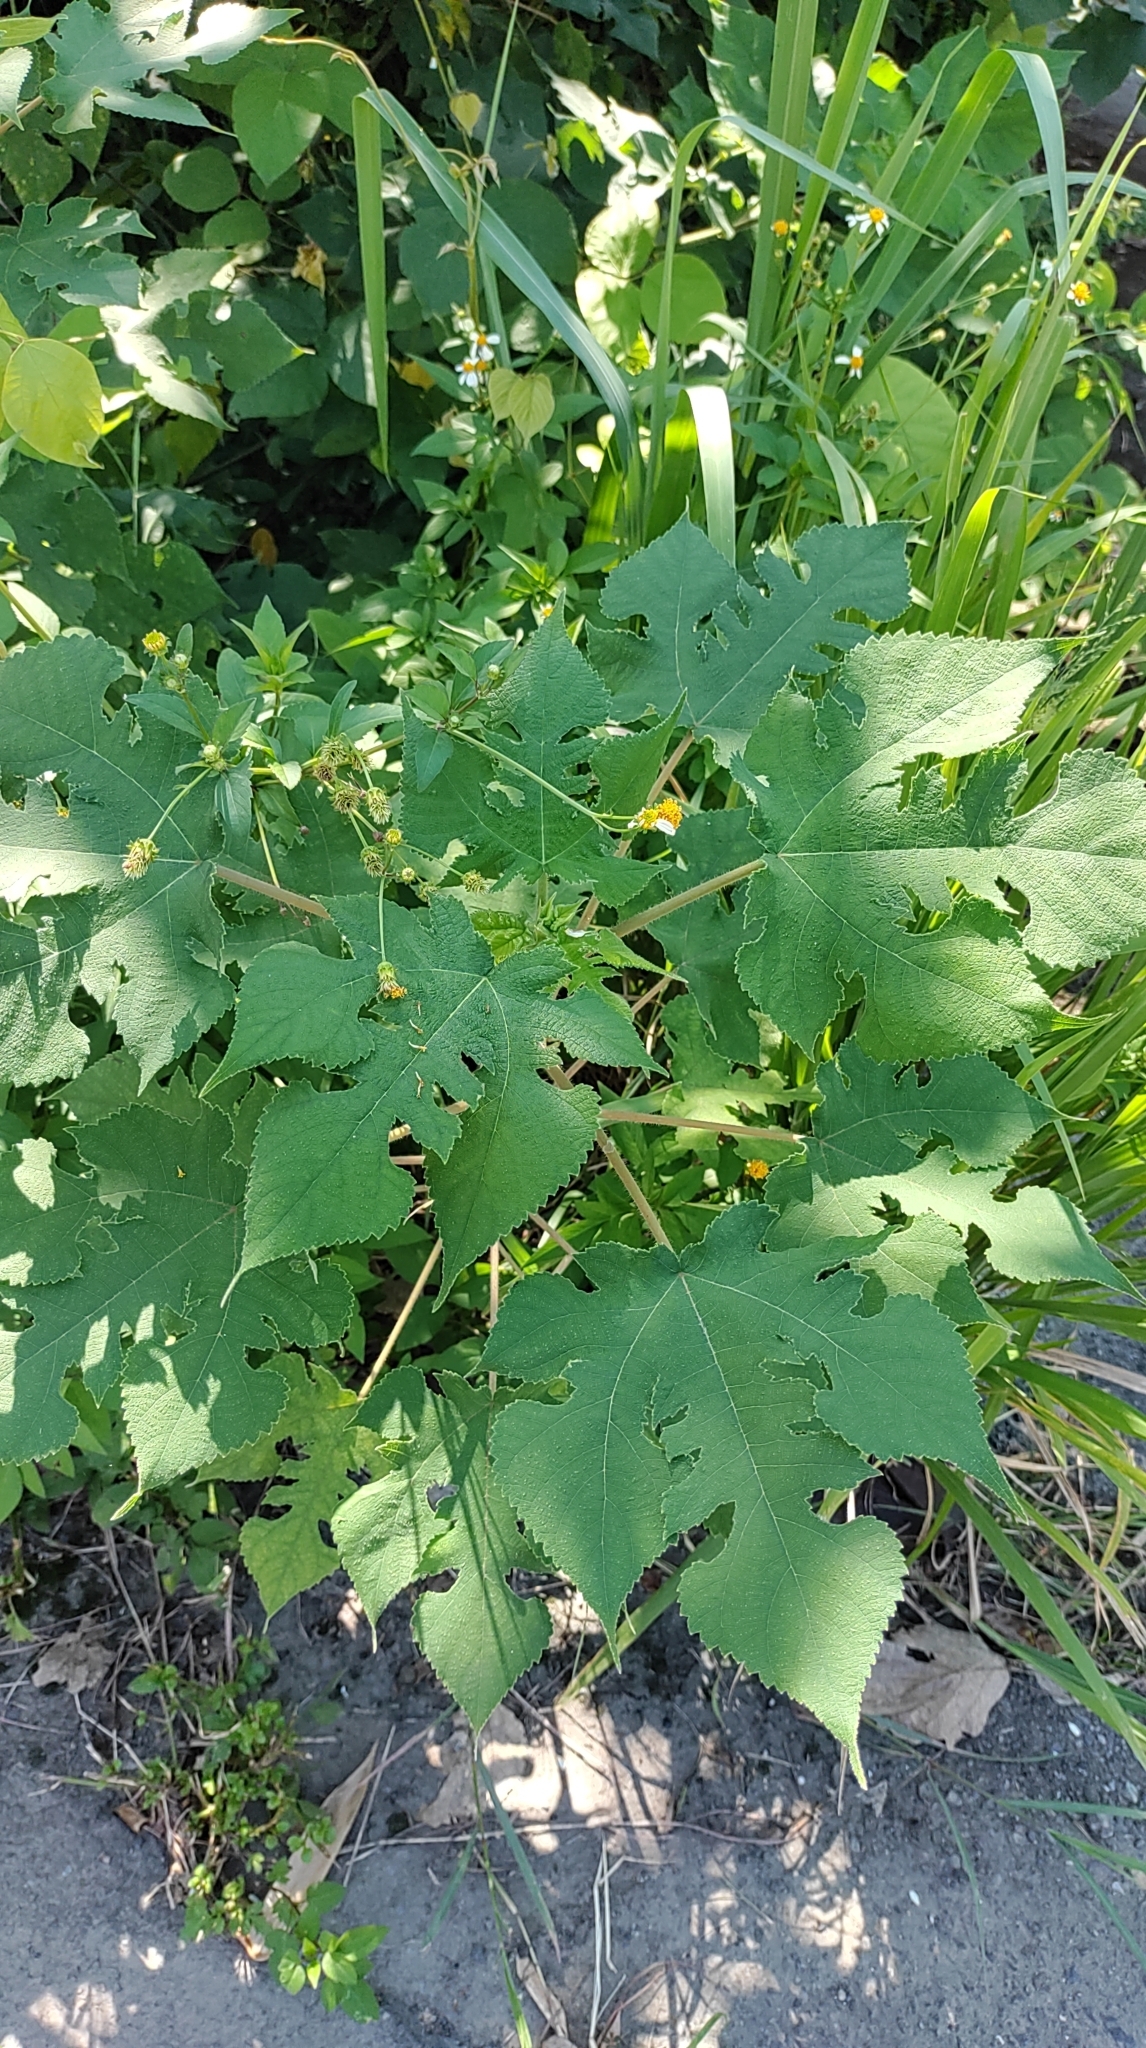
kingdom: Plantae
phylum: Tracheophyta
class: Magnoliopsida
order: Rosales
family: Moraceae
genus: Broussonetia
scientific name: Broussonetia papyrifera
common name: Paper mulberry
